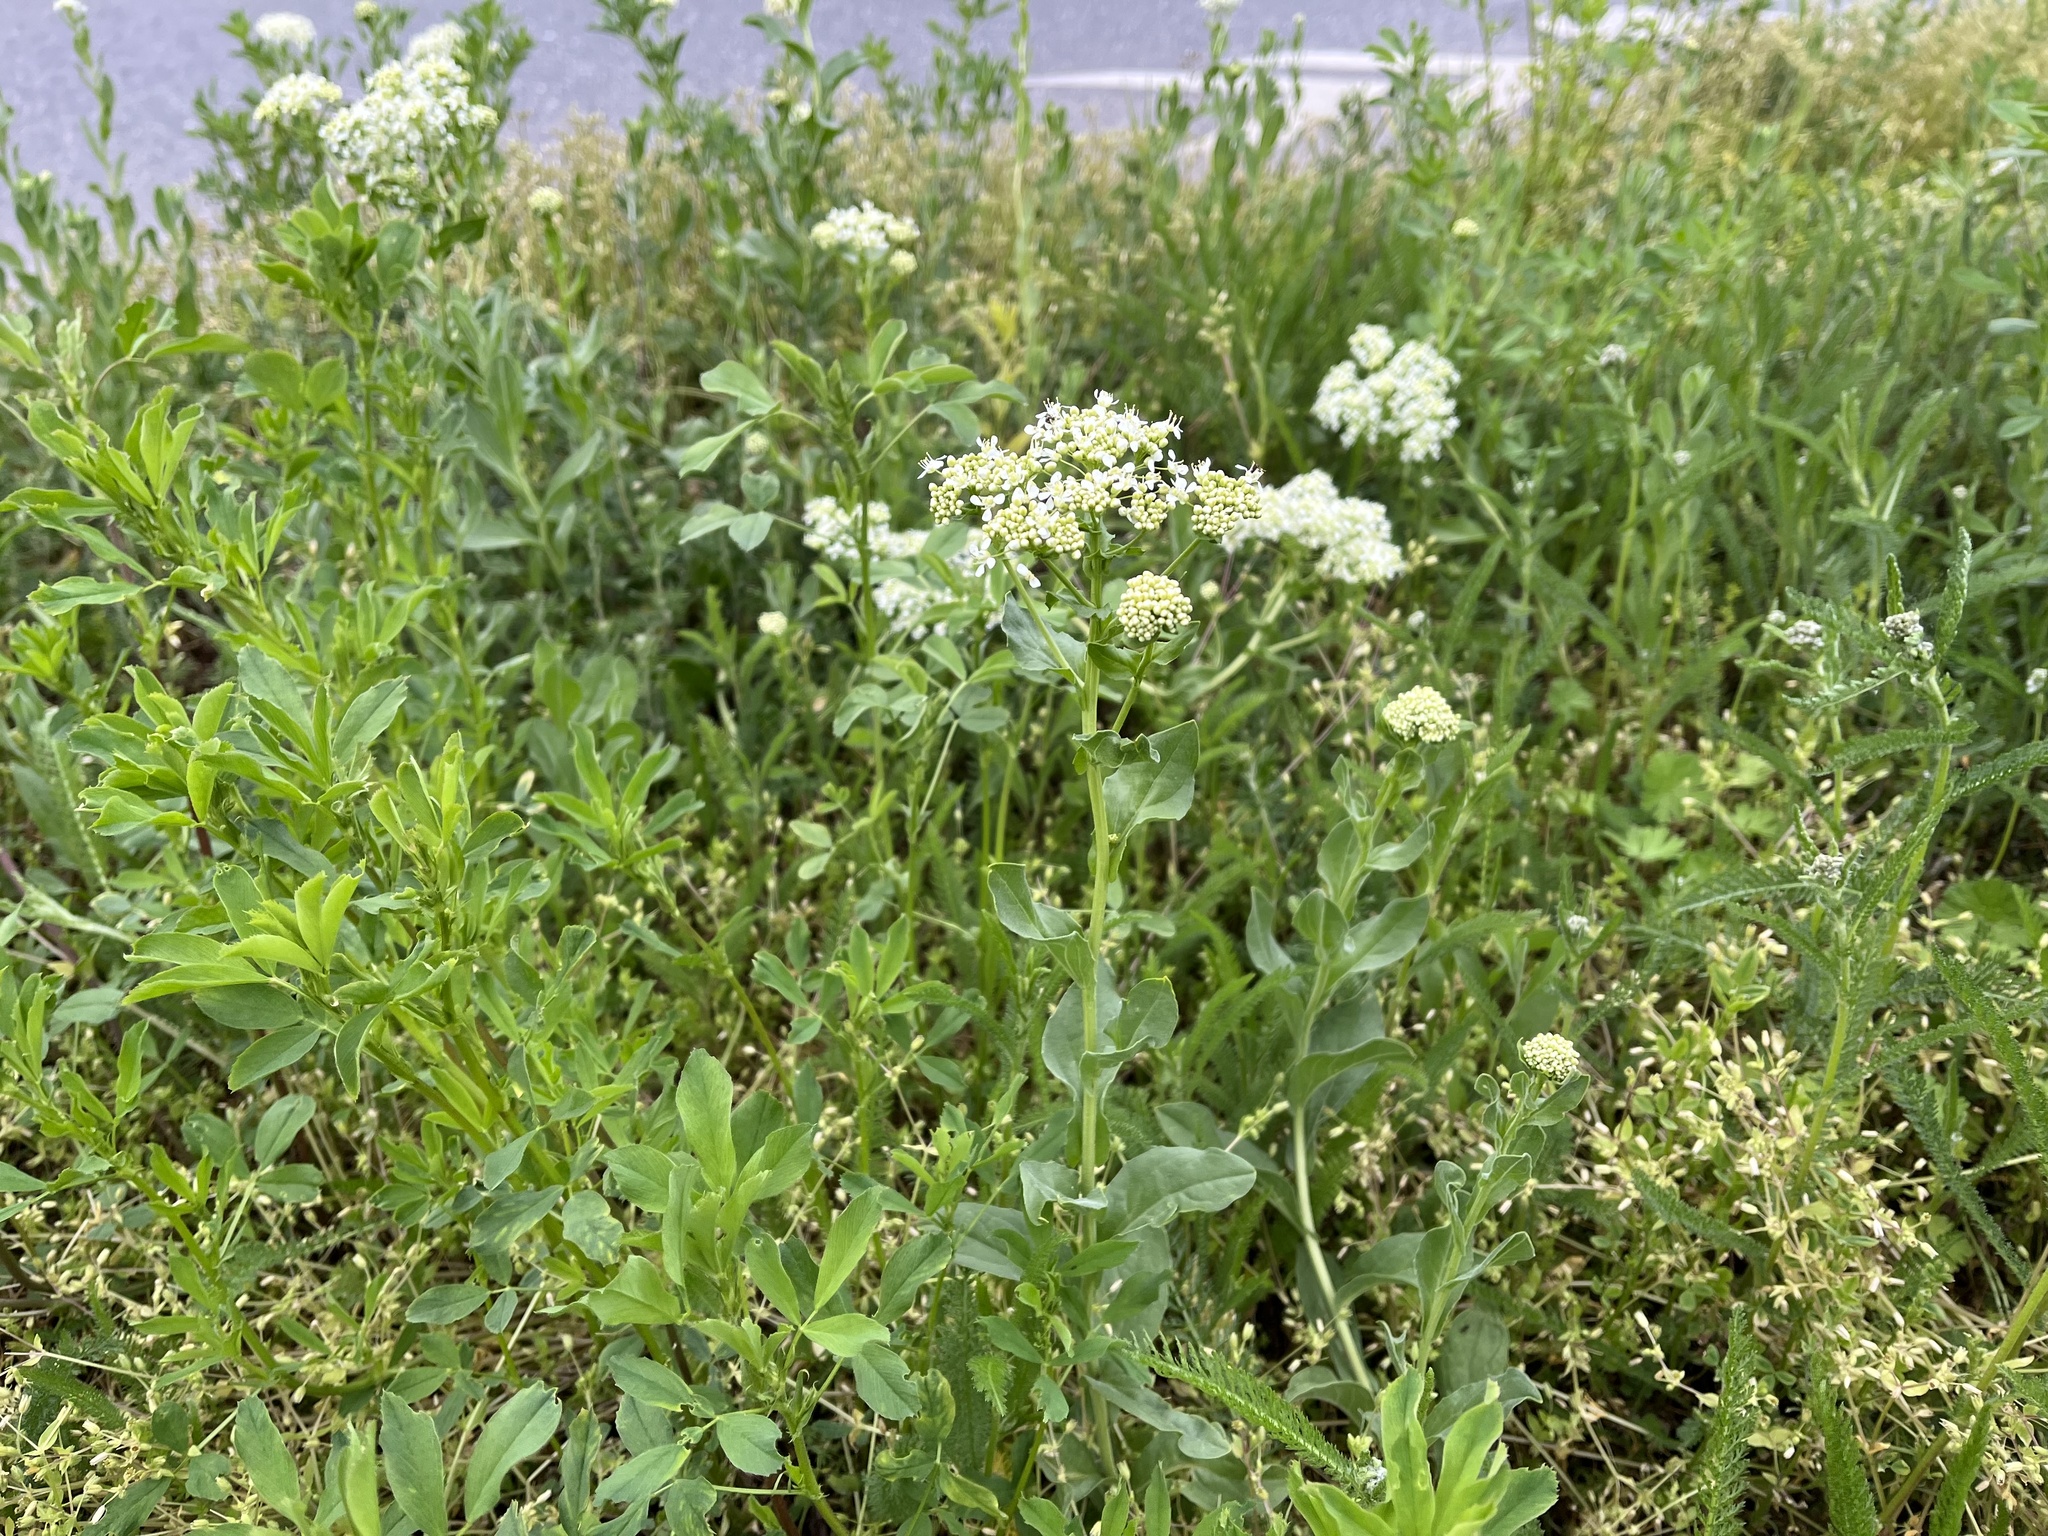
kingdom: Plantae
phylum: Tracheophyta
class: Magnoliopsida
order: Brassicales
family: Brassicaceae
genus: Lepidium
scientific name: Lepidium draba
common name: Hoary cress
